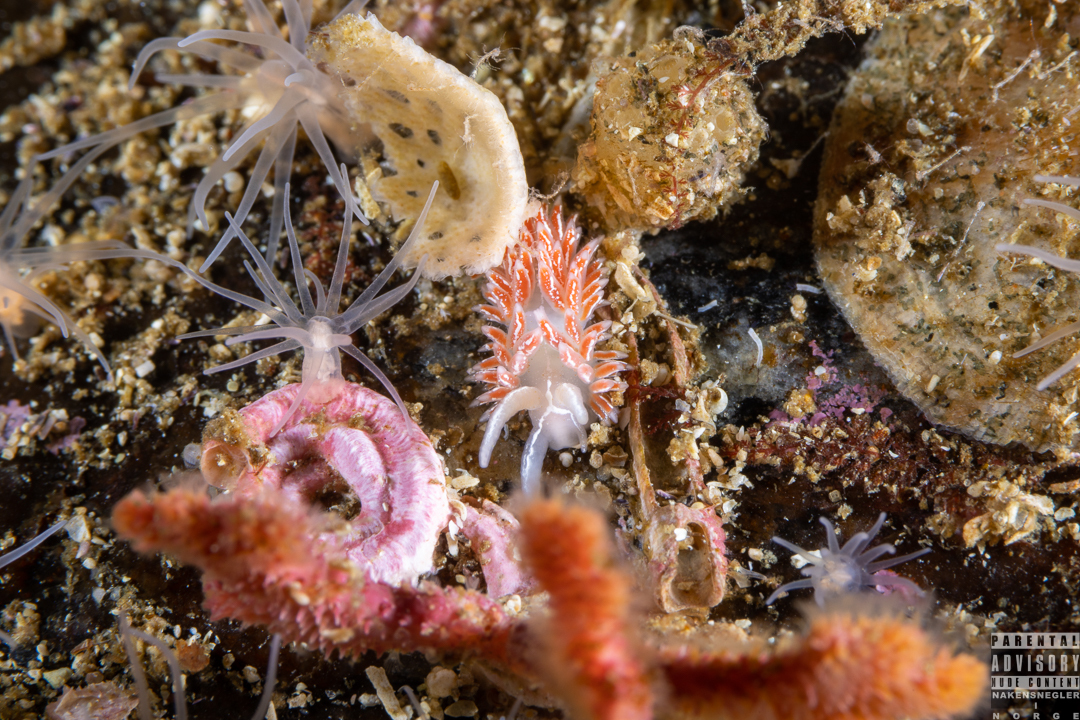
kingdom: Animalia
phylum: Mollusca
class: Gastropoda
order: Nudibranchia
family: Coryphellidae
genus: Coryphella
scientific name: Coryphella chriskaugei
